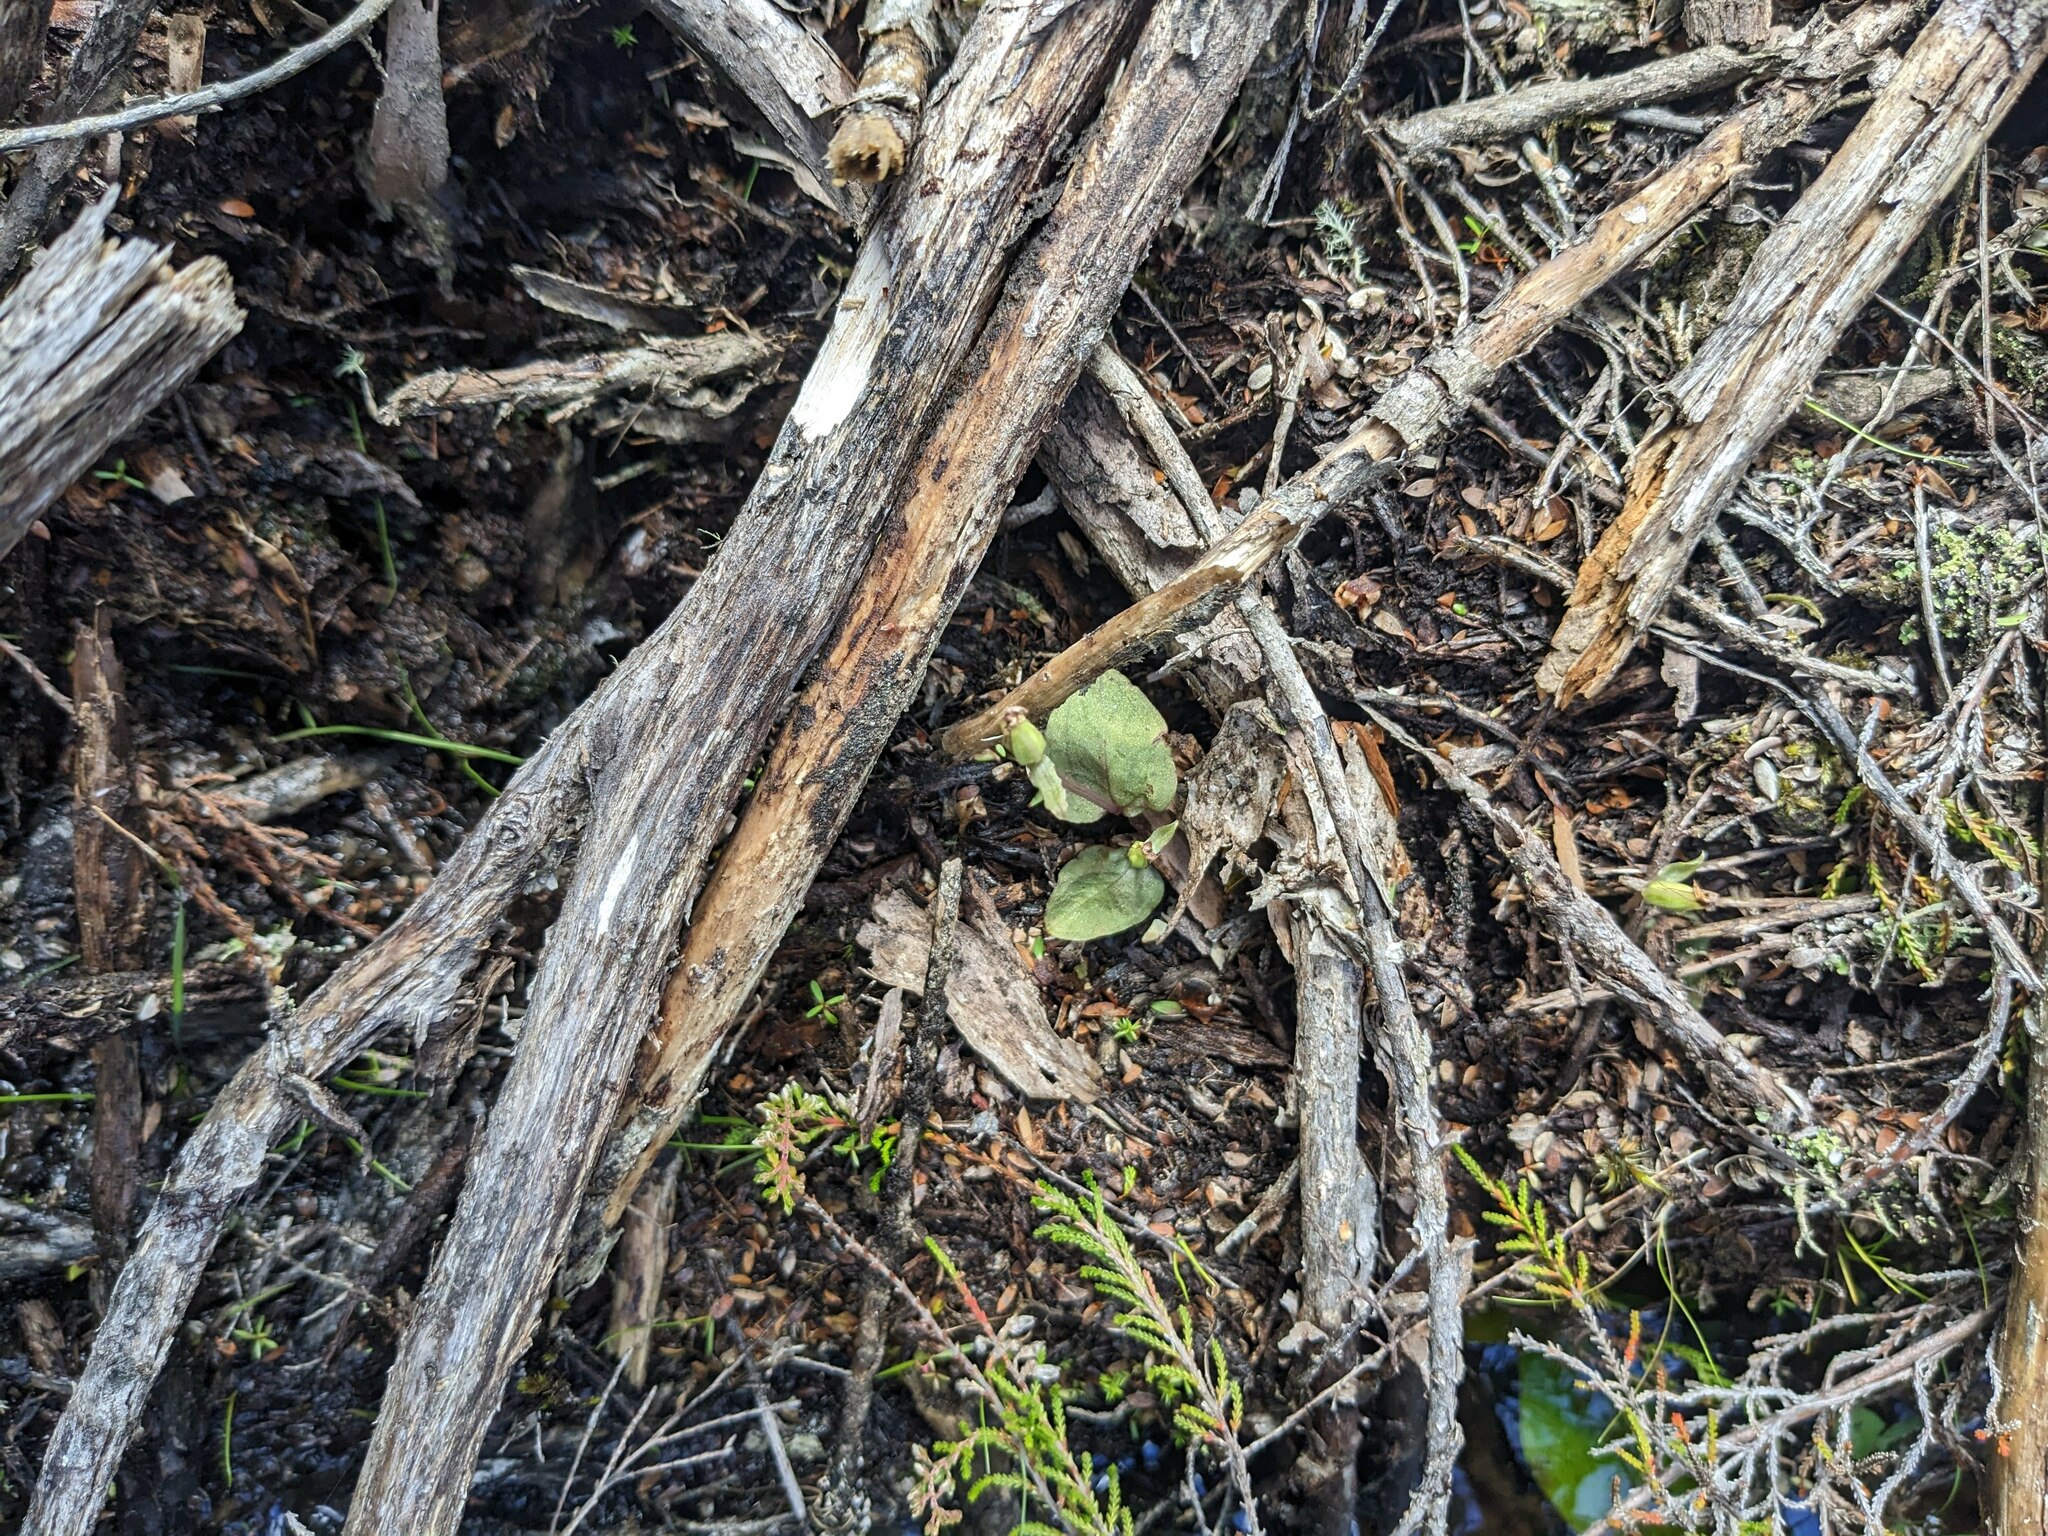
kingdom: Plantae
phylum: Tracheophyta
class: Liliopsida
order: Asparagales
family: Orchidaceae
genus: Corybas
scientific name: Corybas oblongus
